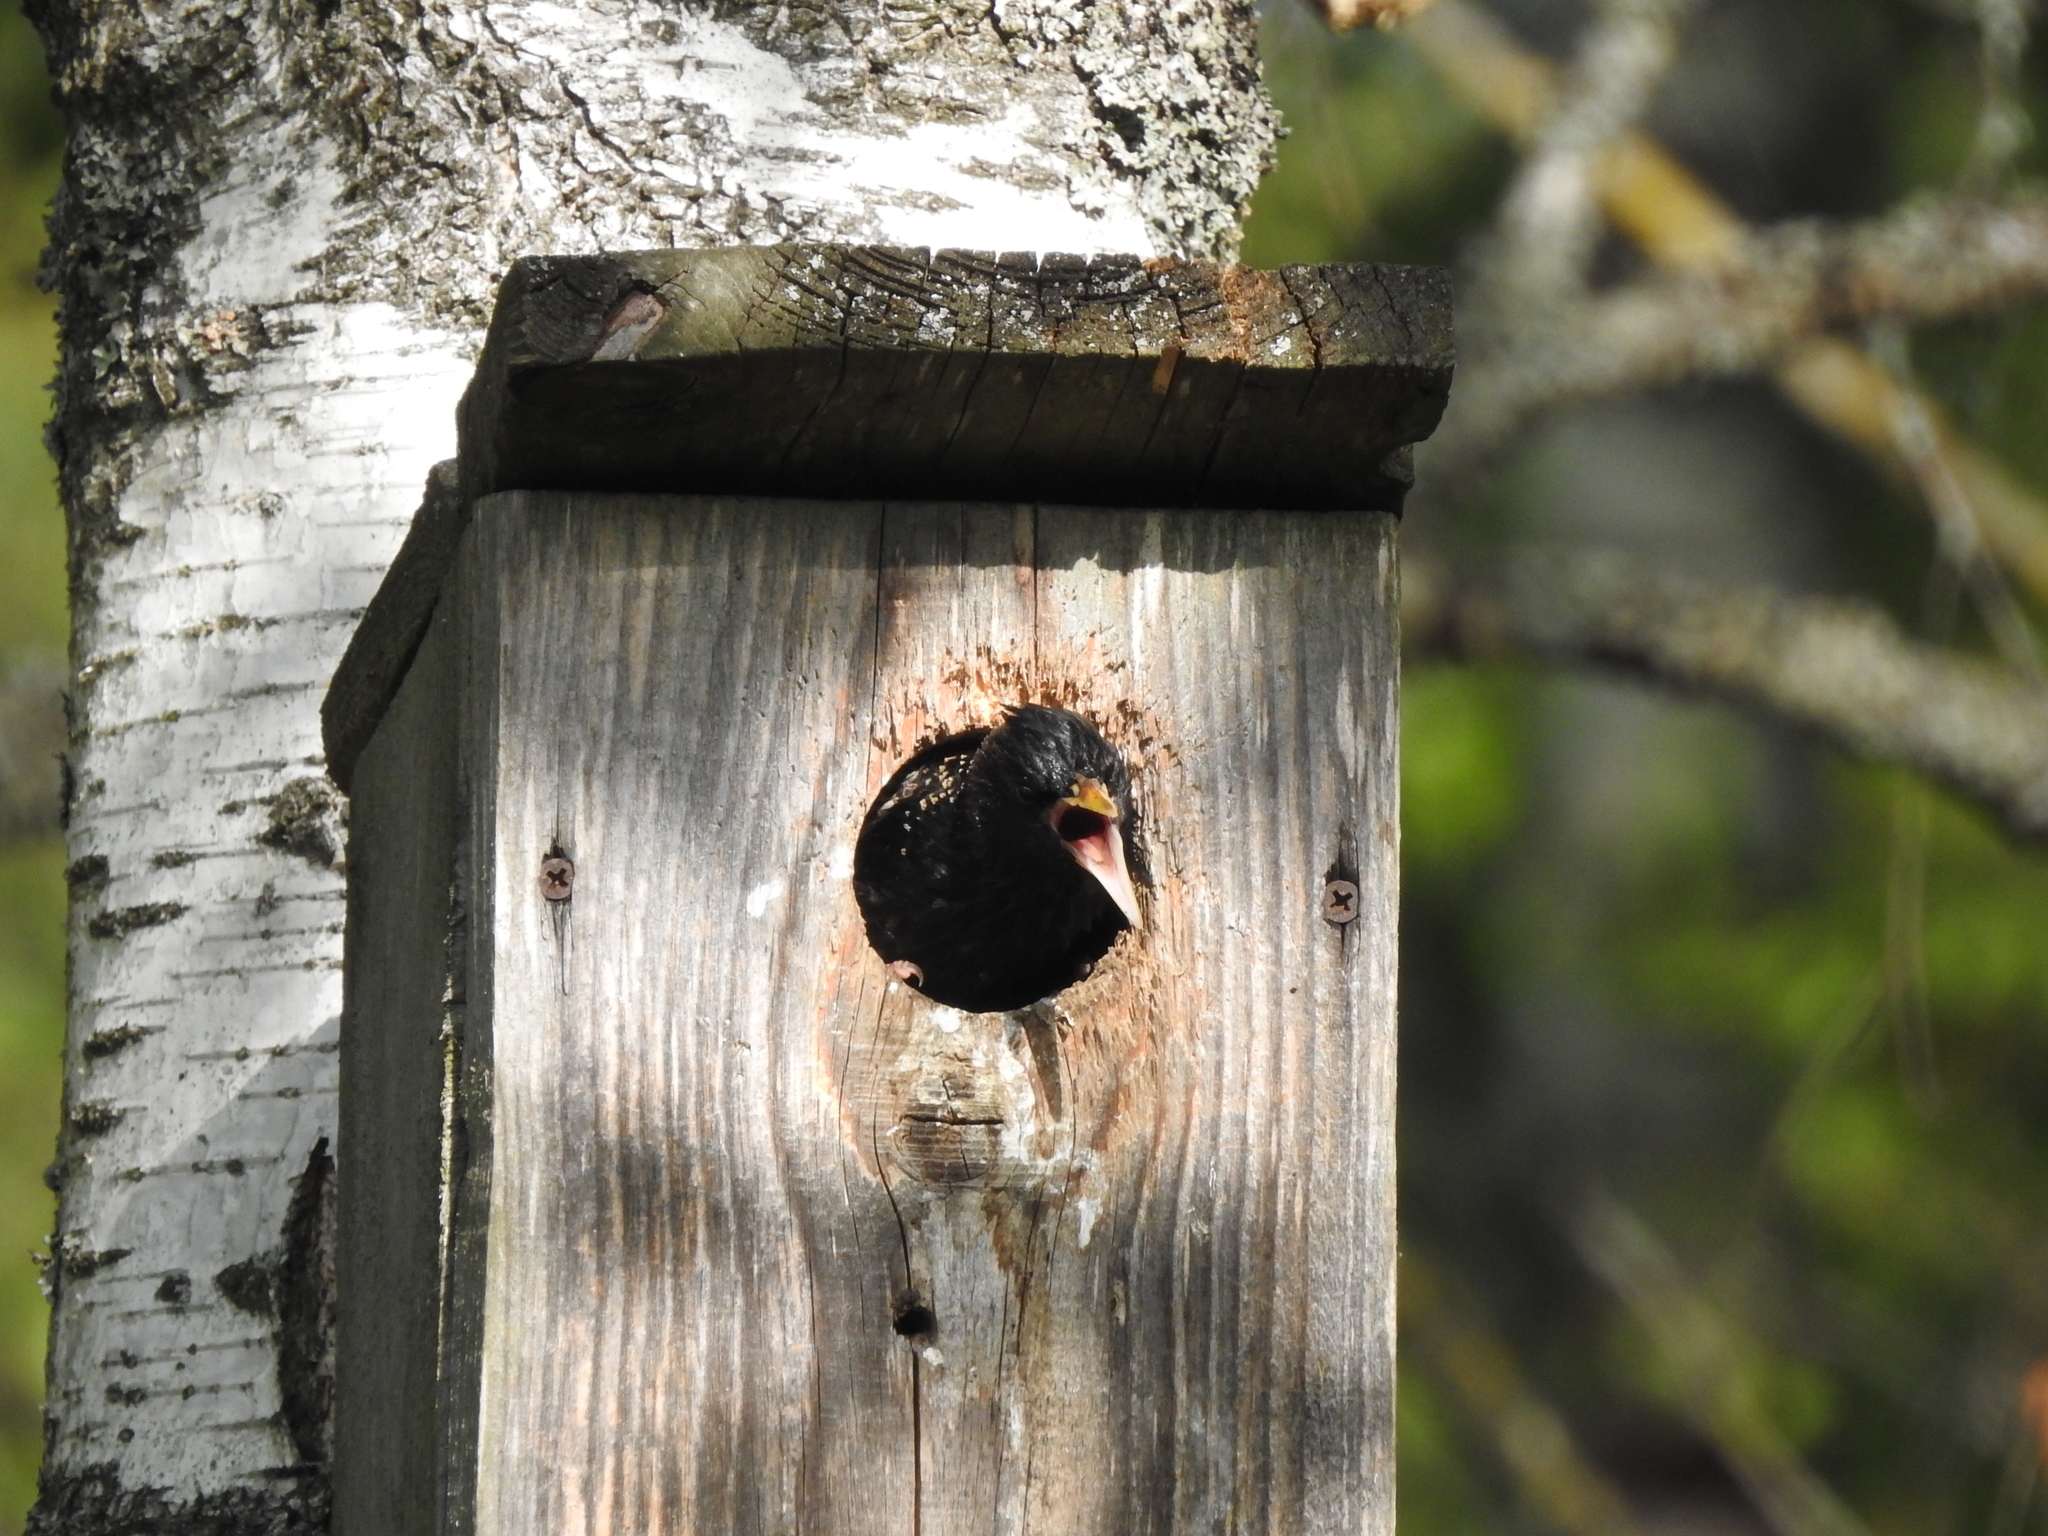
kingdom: Animalia
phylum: Chordata
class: Aves
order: Passeriformes
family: Sturnidae
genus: Sturnus
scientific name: Sturnus vulgaris
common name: Common starling
